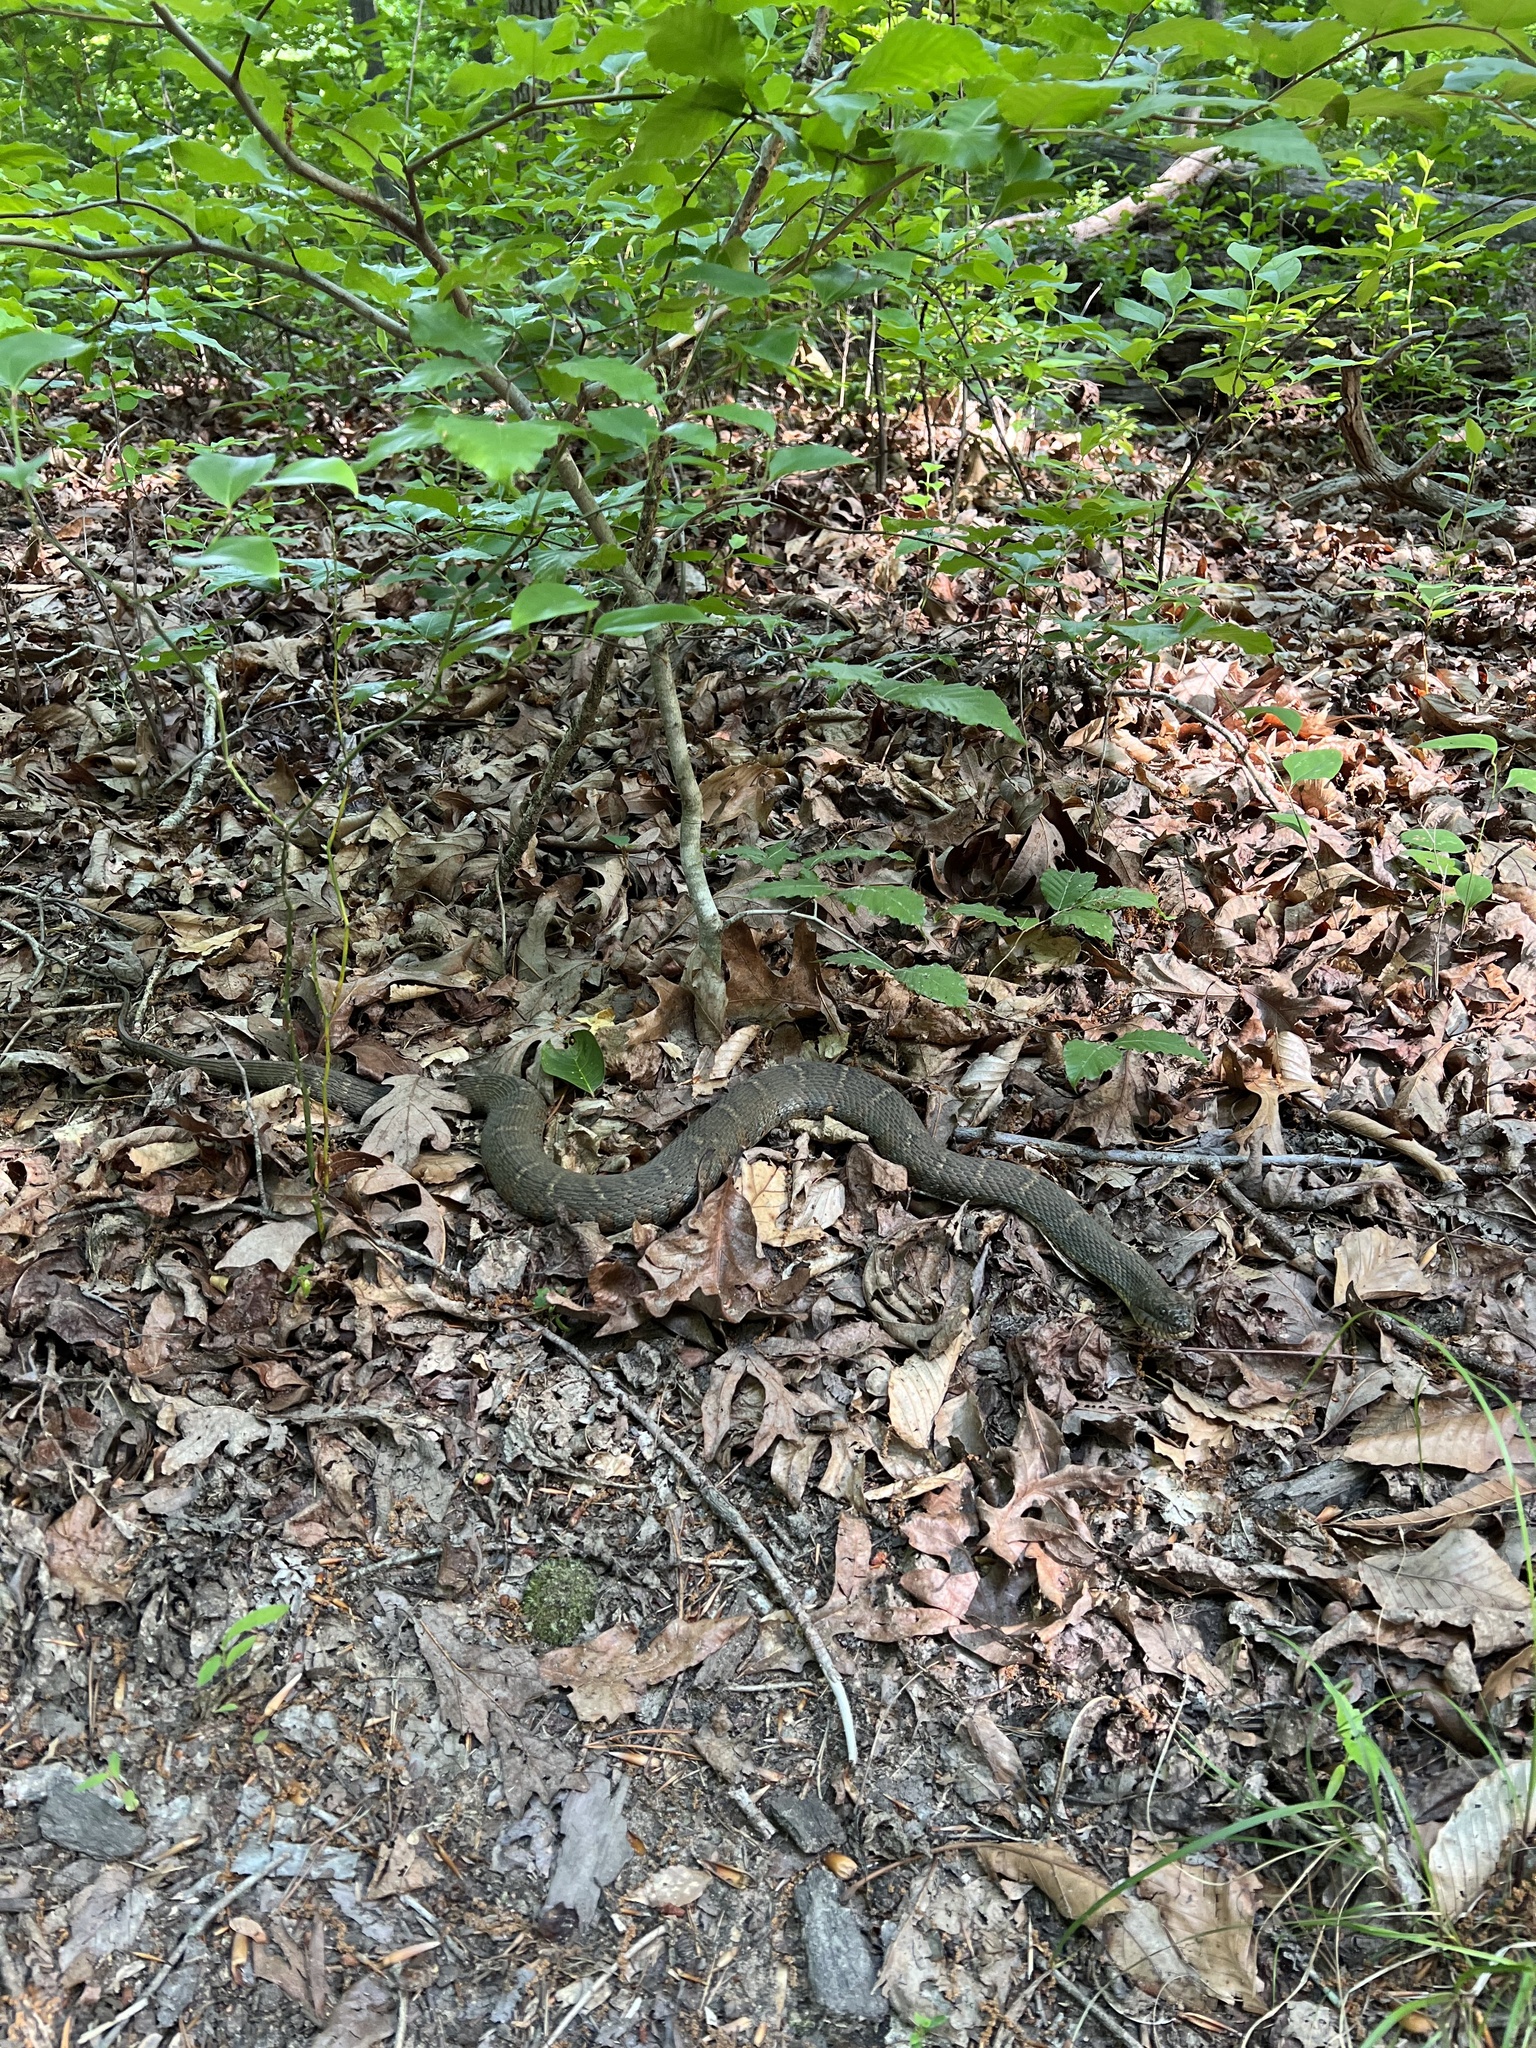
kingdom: Animalia
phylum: Chordata
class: Squamata
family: Colubridae
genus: Nerodia
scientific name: Nerodia sipedon
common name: Northern water snake
